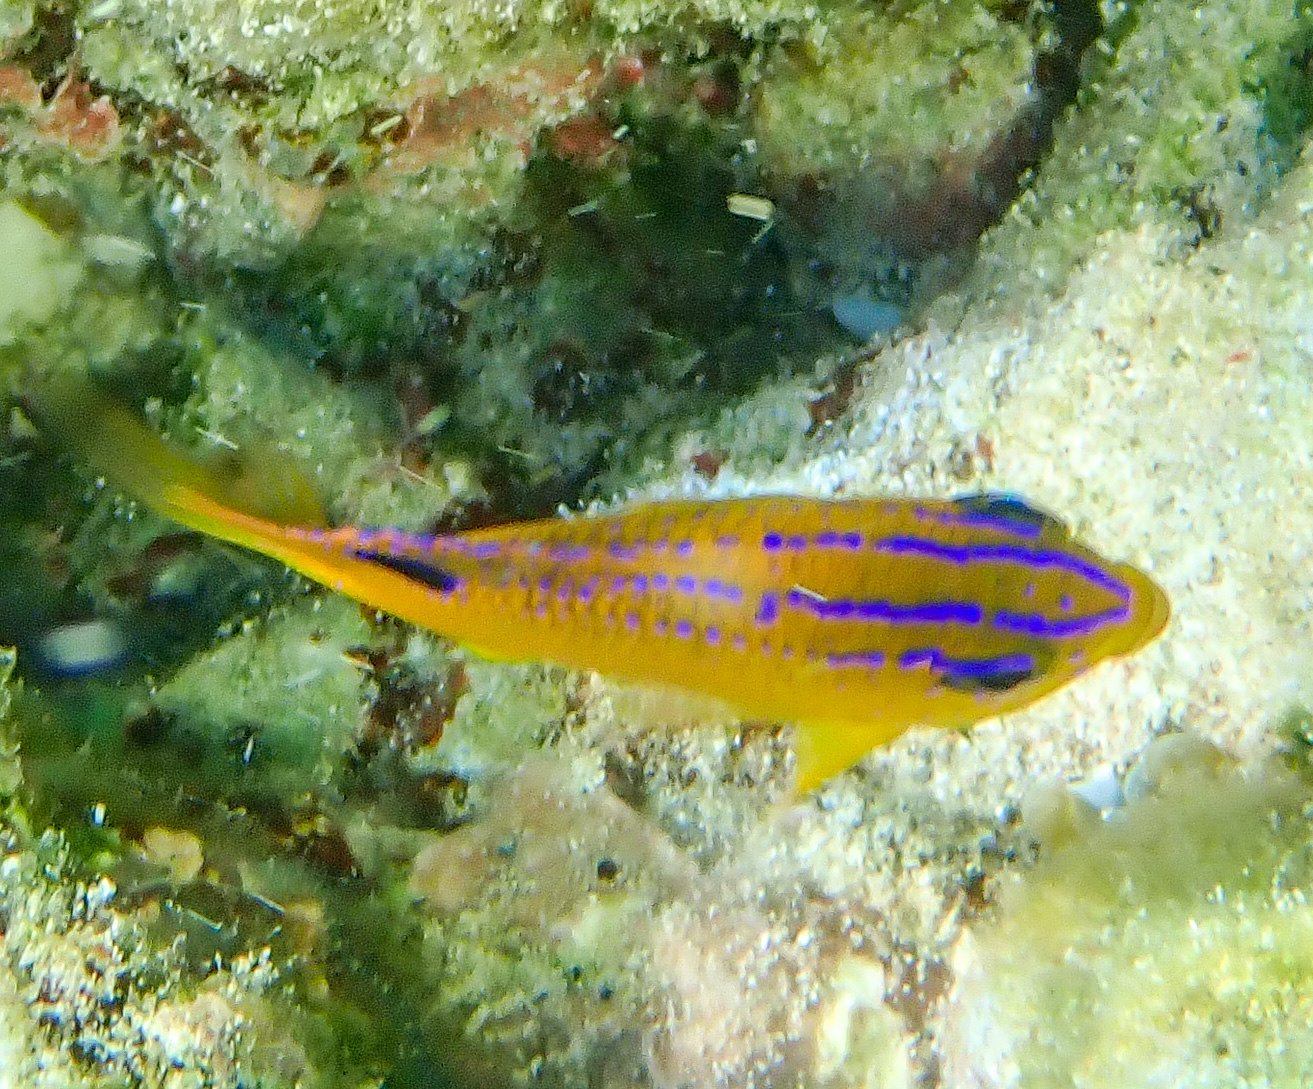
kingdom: Animalia
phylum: Chordata
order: Perciformes
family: Pomacentridae
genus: Stegastes
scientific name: Stegastes diencaeus
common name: Longfin damselfish
